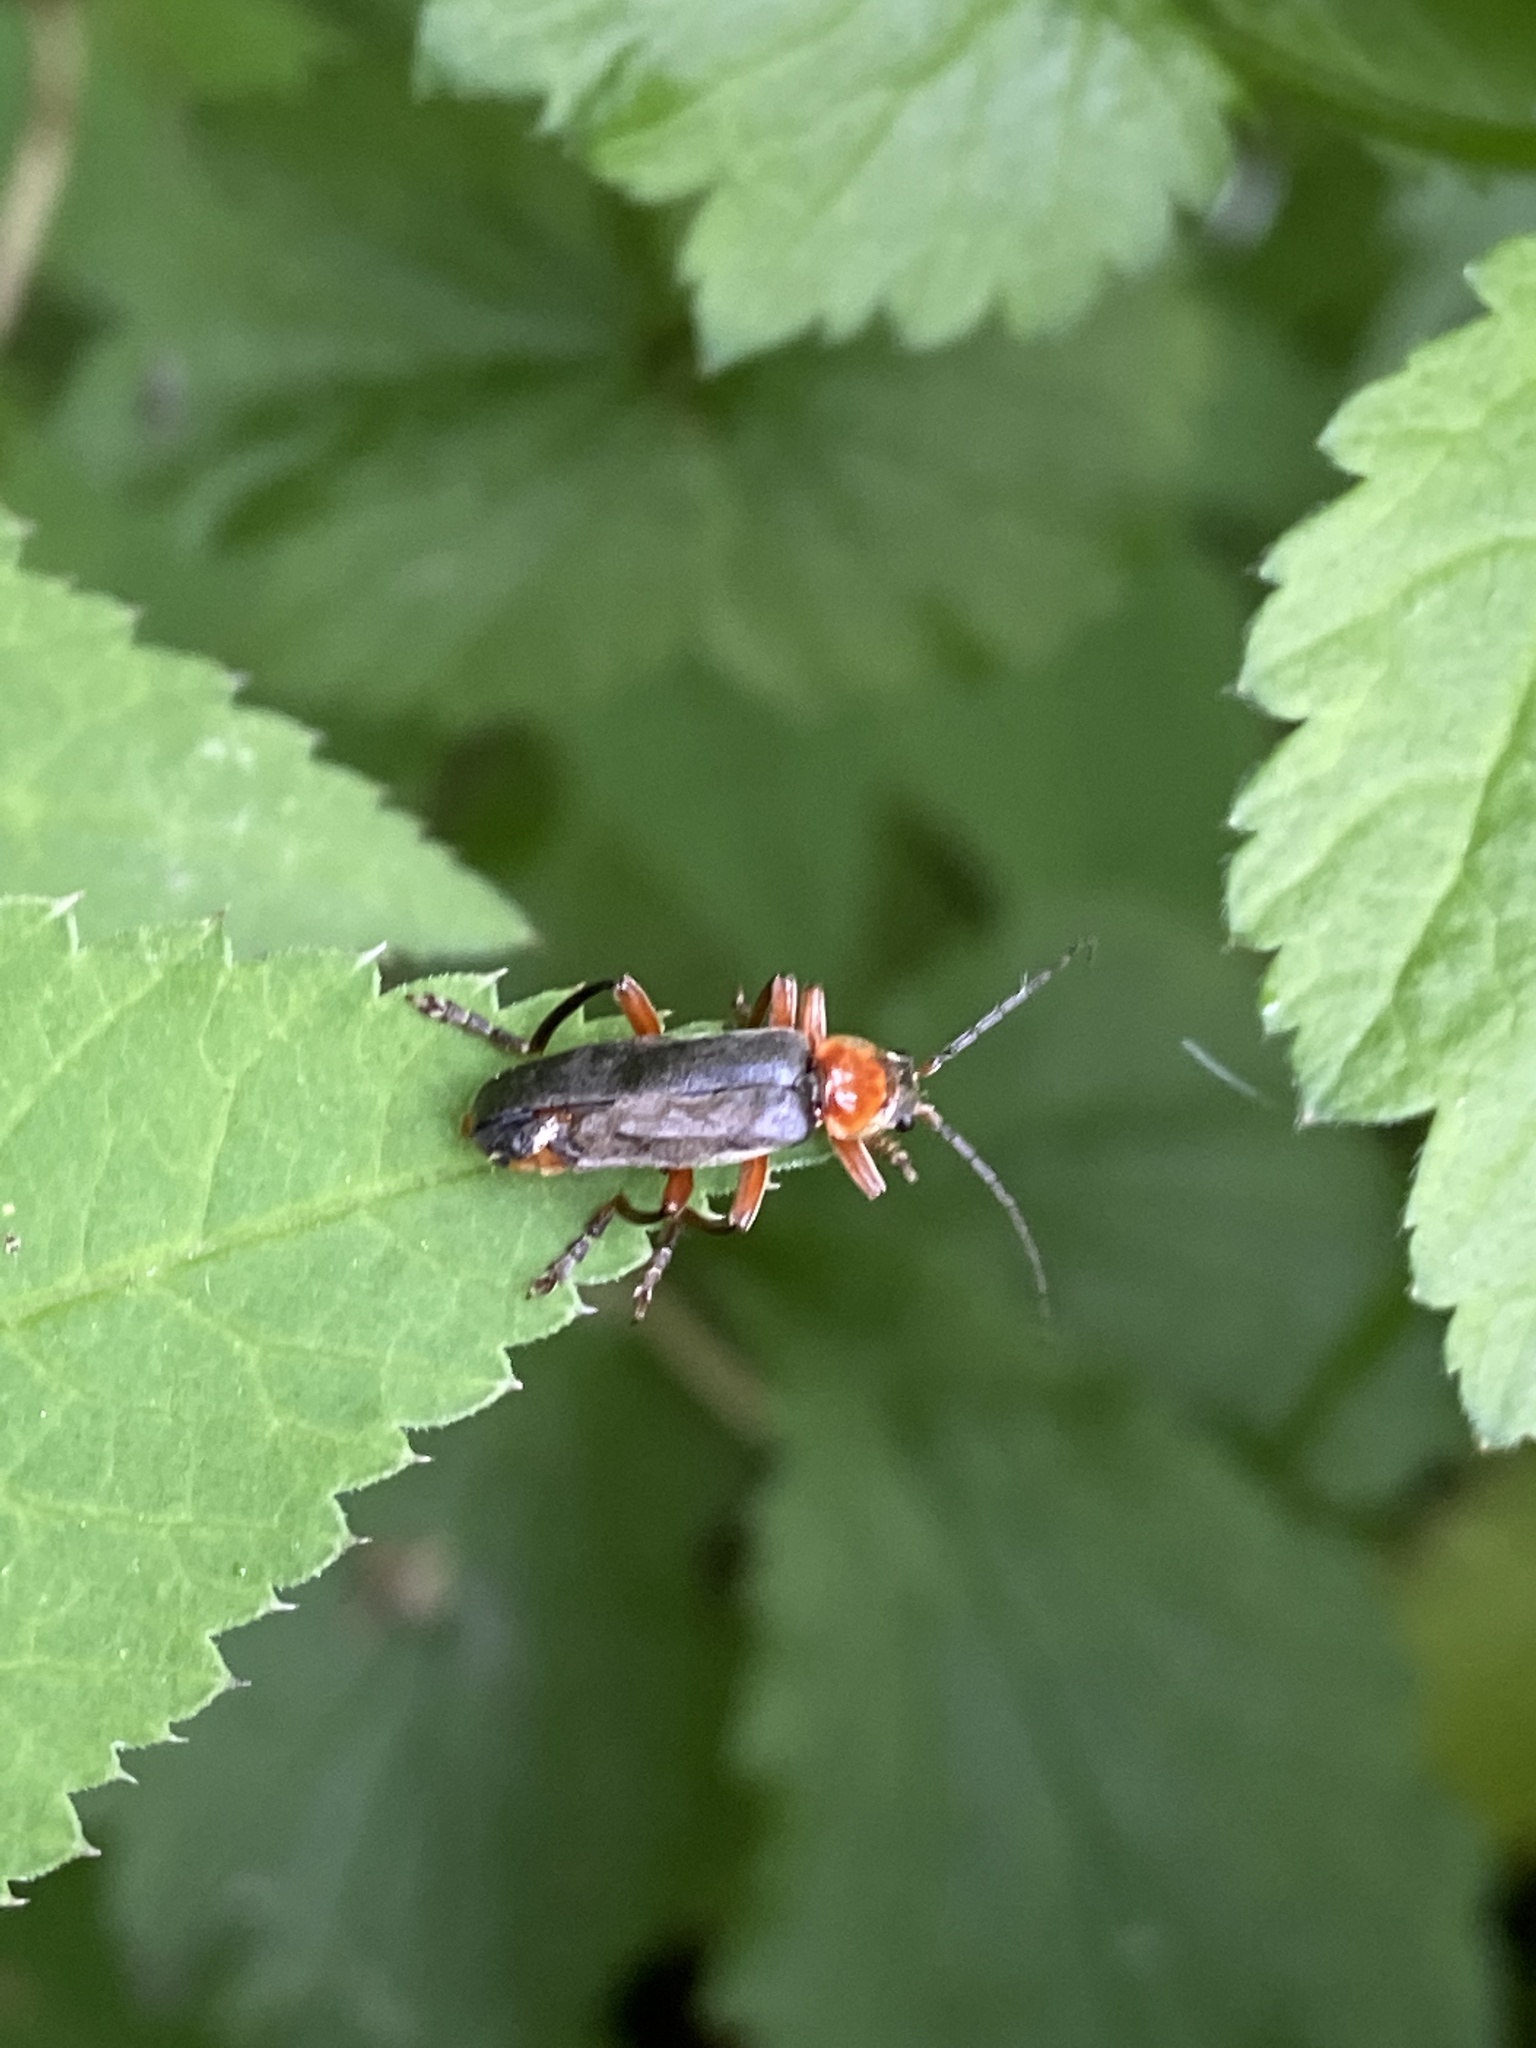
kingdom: Animalia
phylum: Arthropoda
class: Insecta
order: Coleoptera
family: Cantharidae
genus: Cantharis
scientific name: Cantharis pellucida
